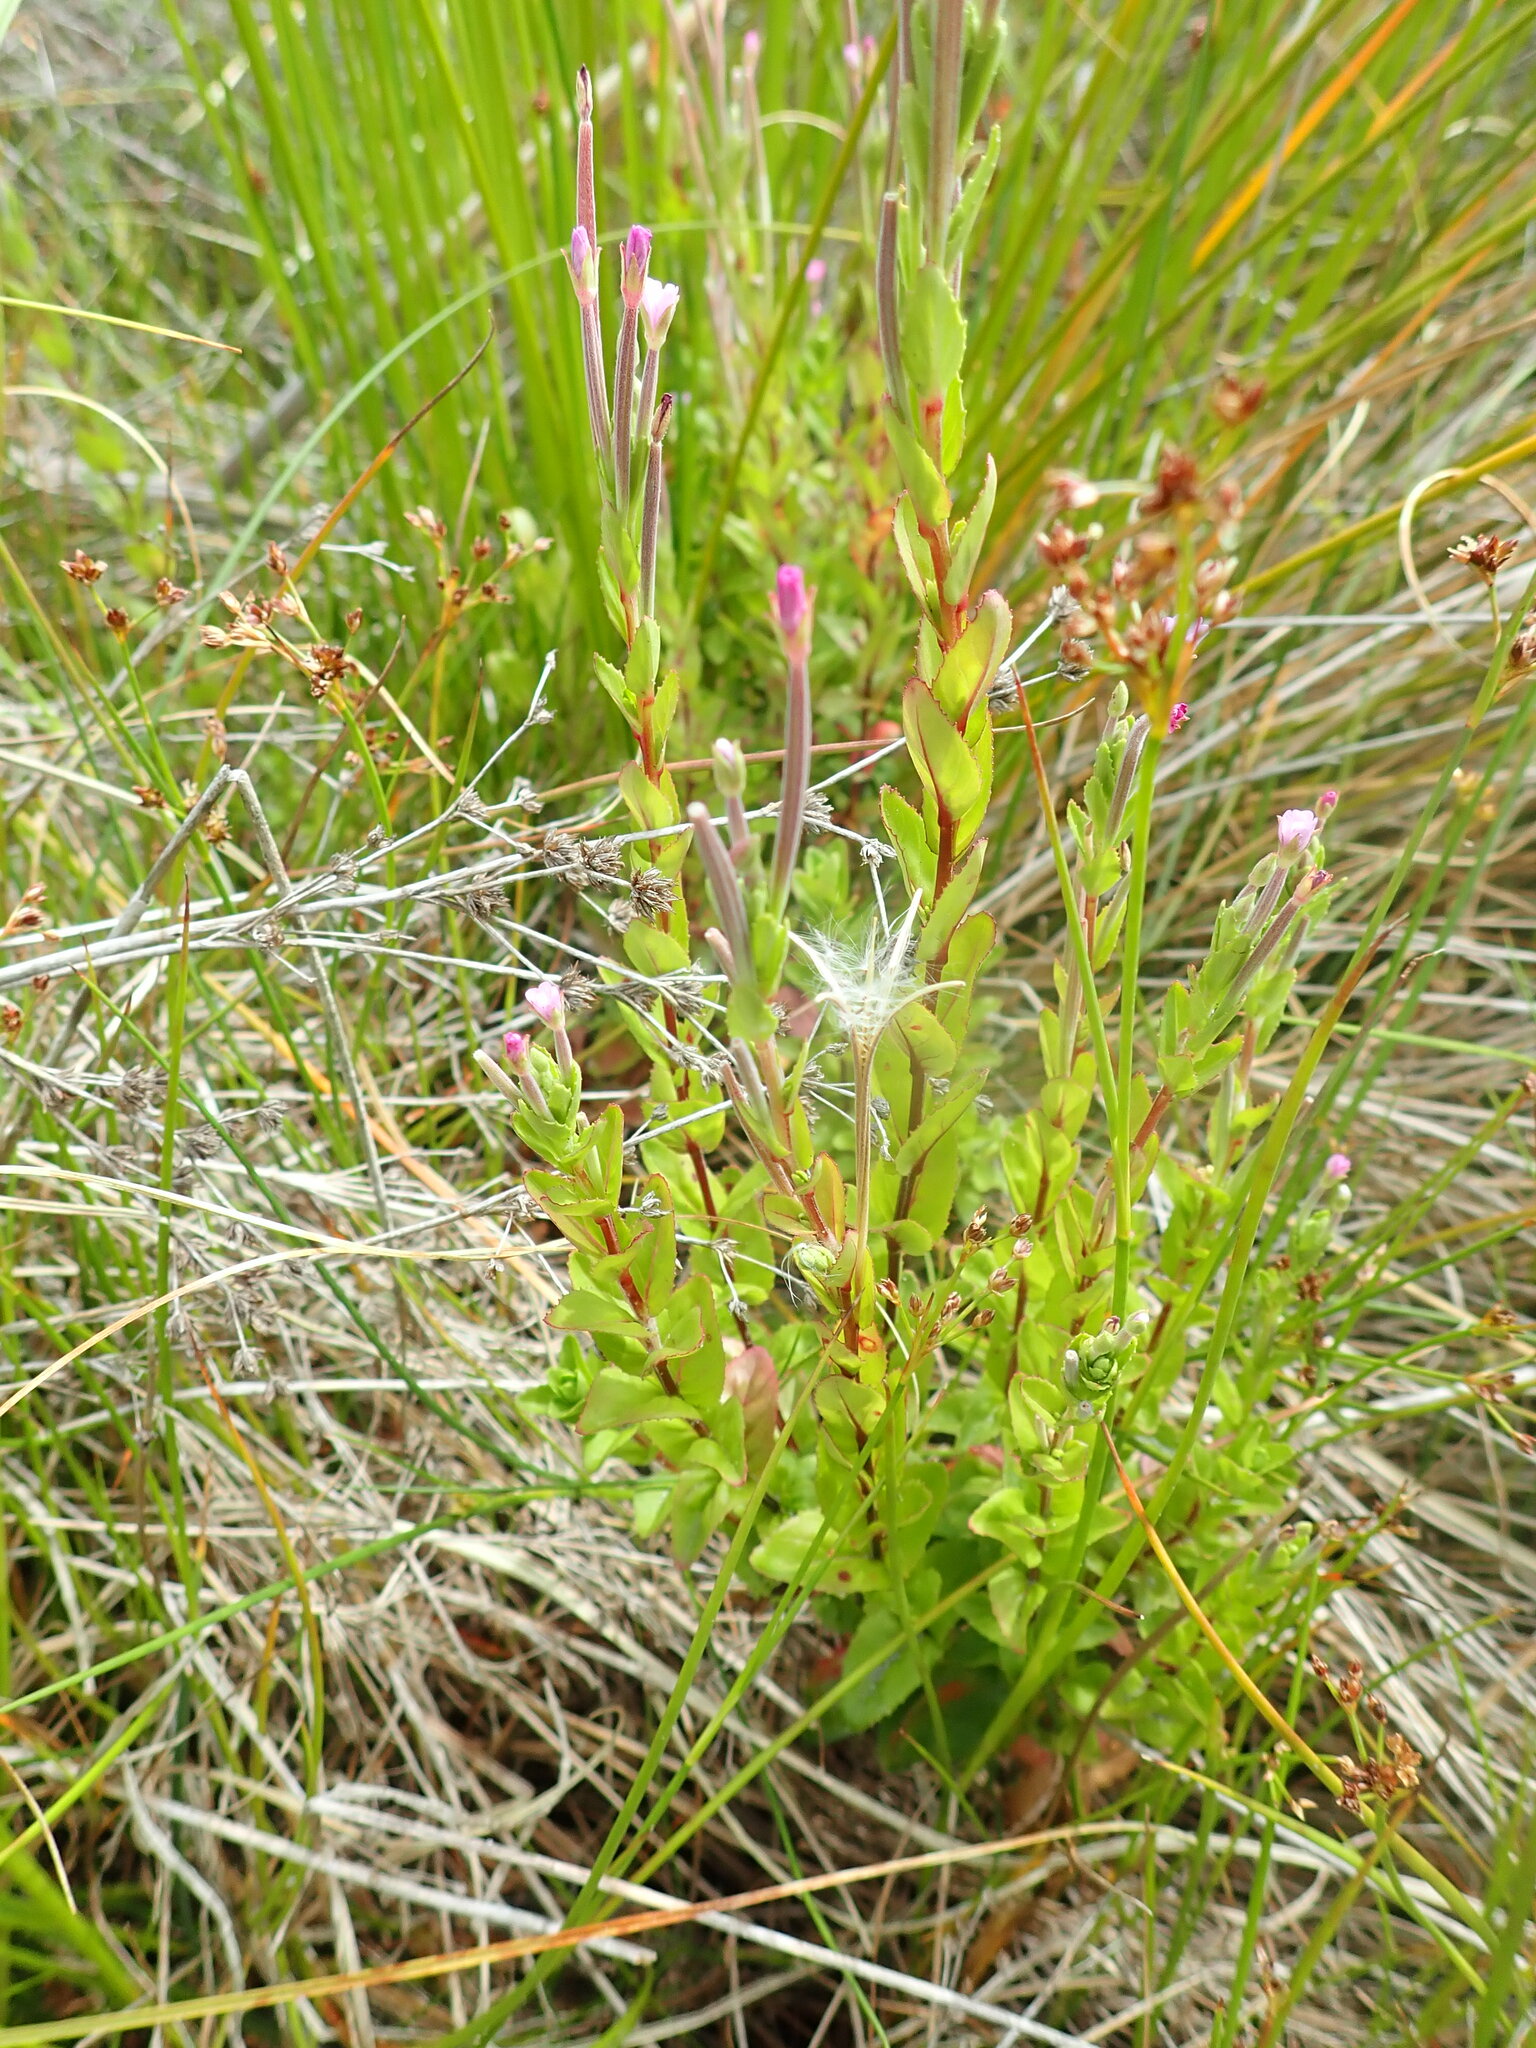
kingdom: Plantae
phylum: Tracheophyta
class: Magnoliopsida
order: Myrtales
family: Onagraceae
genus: Epilobium
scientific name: Epilobium billardiereanum
